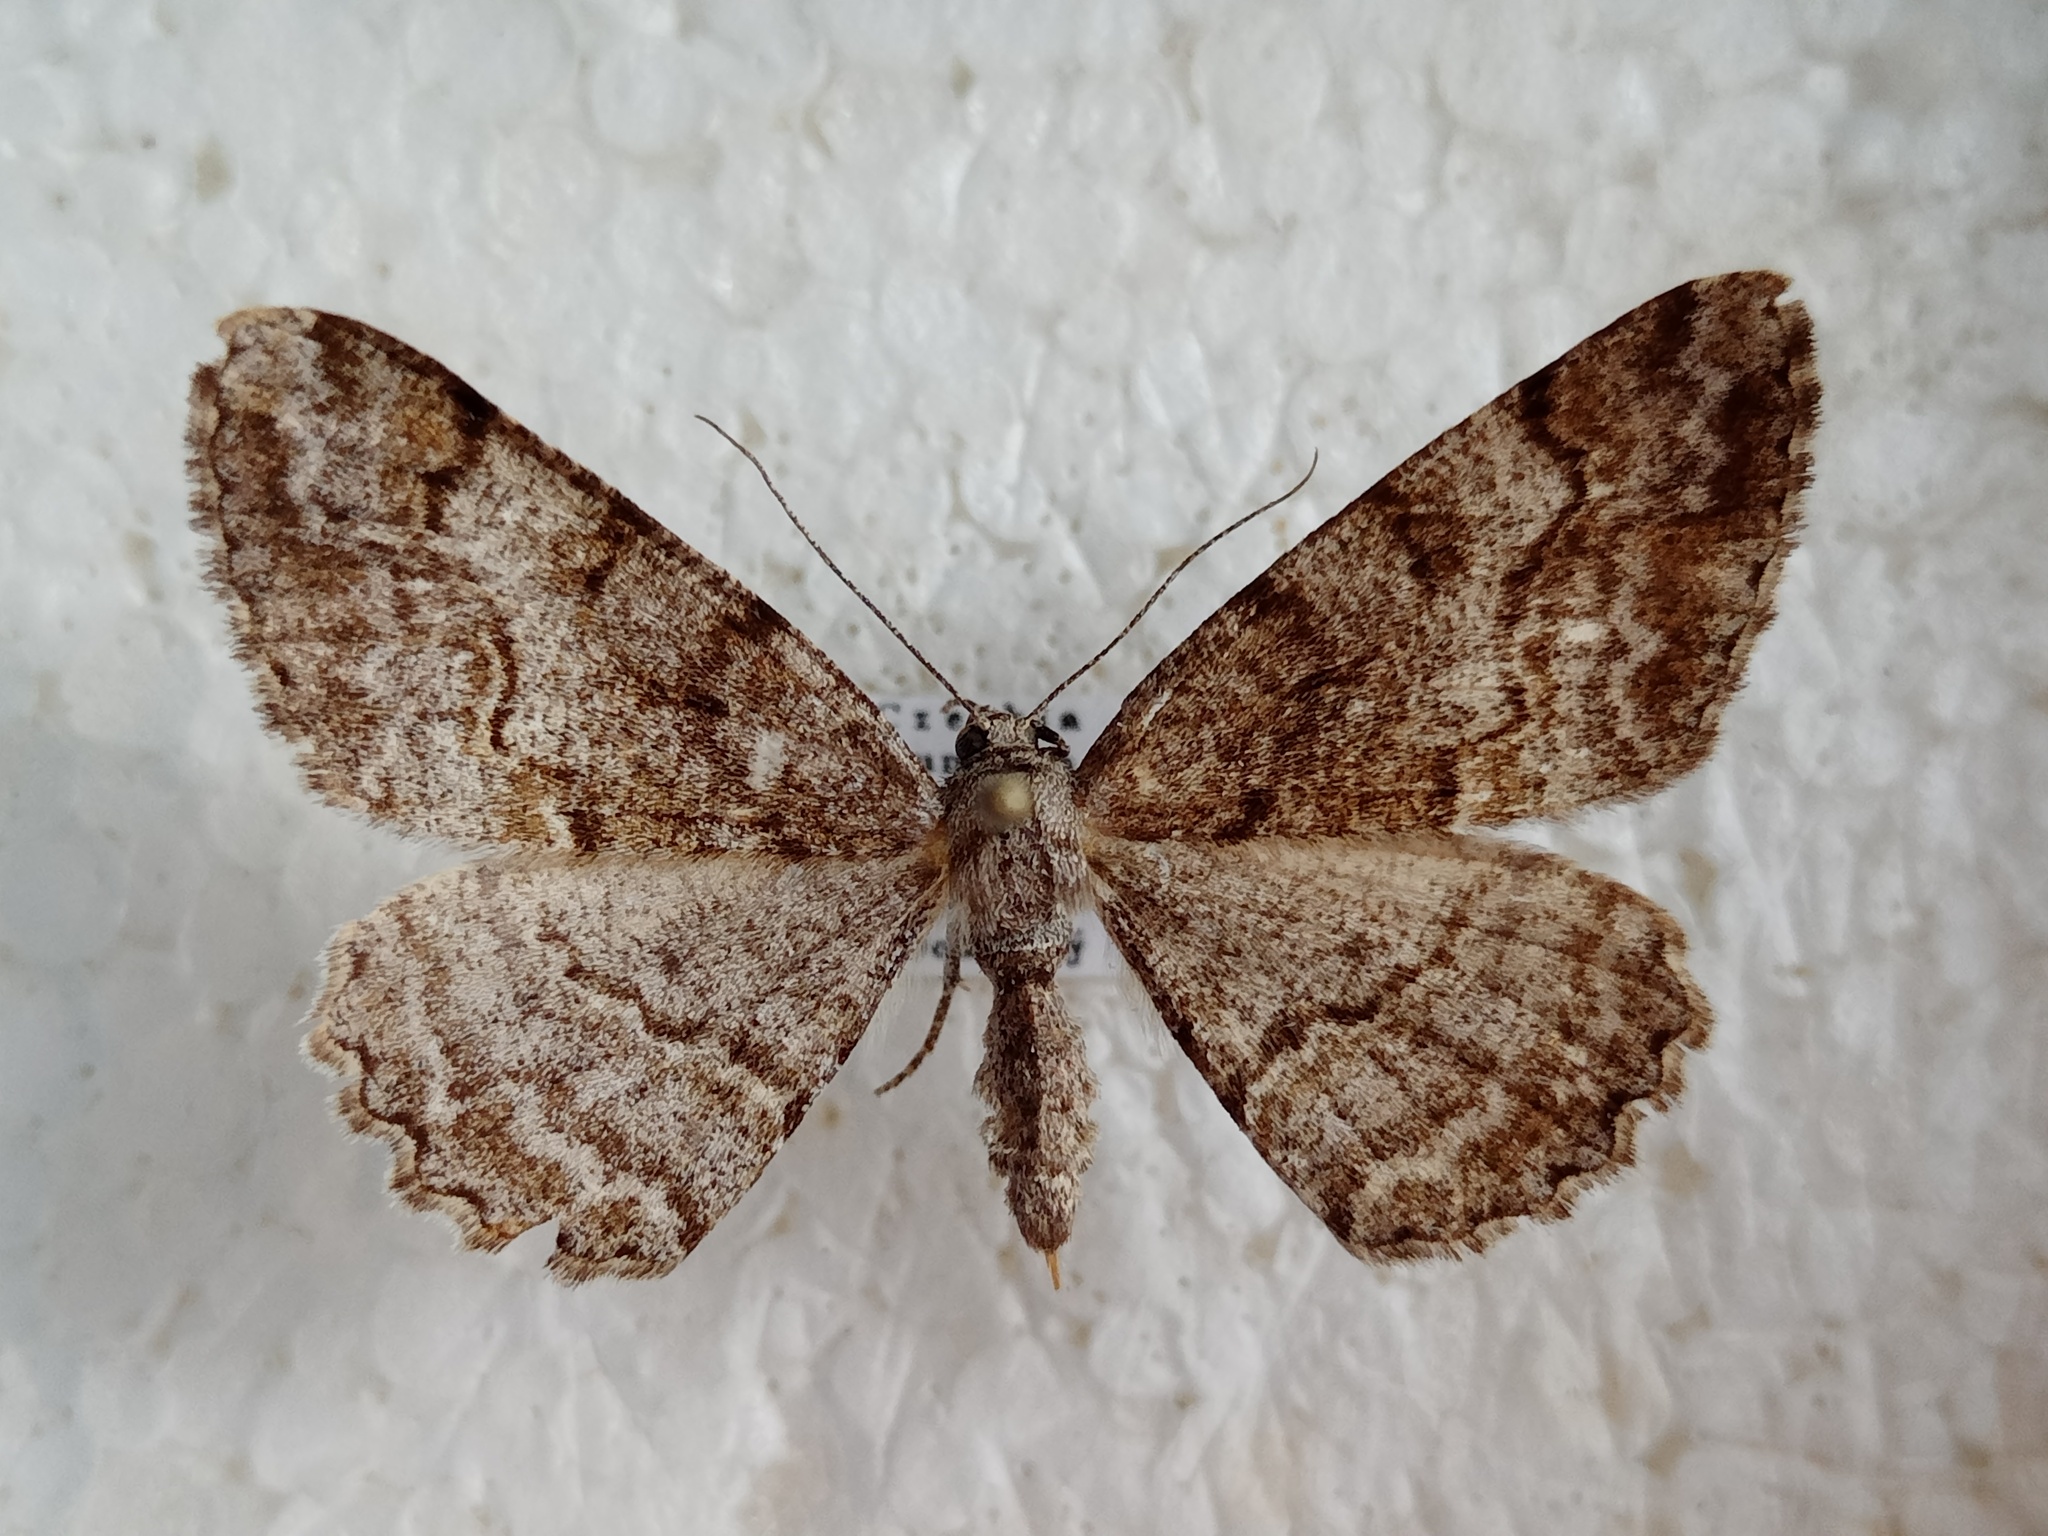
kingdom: Animalia
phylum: Arthropoda
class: Insecta
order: Lepidoptera
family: Geometridae
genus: Alcis
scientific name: Alcis repandata
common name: Mottled beauty
